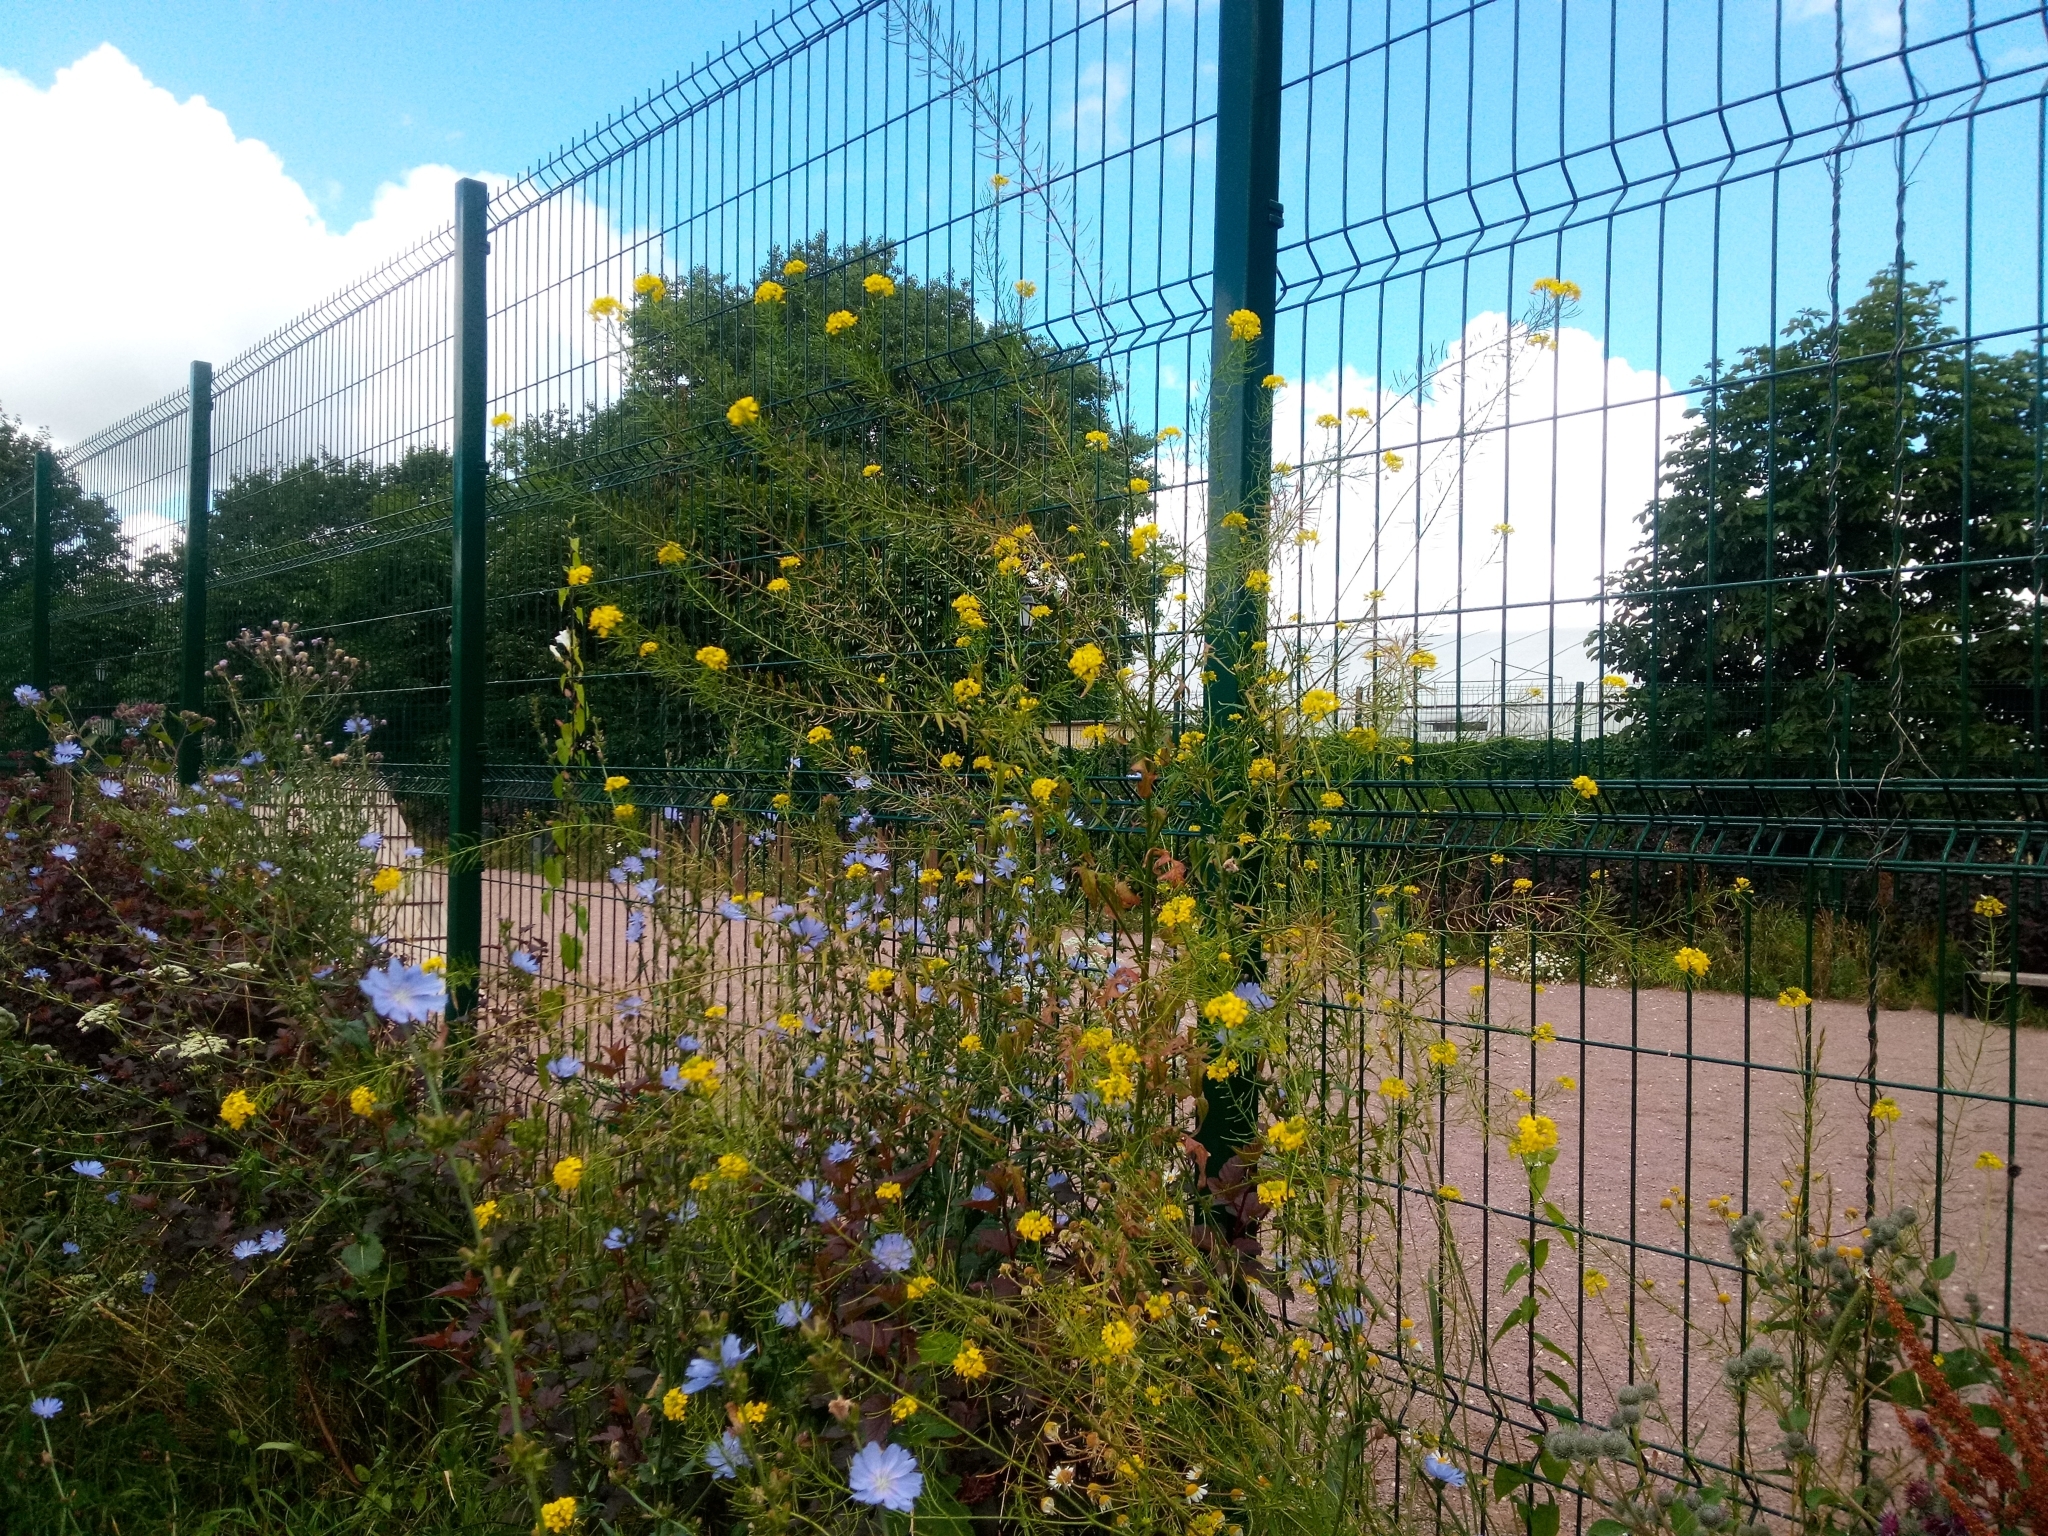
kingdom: Plantae
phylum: Tracheophyta
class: Magnoliopsida
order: Brassicales
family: Brassicaceae
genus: Sisymbrium
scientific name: Sisymbrium loeselii
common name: False london-rocket
